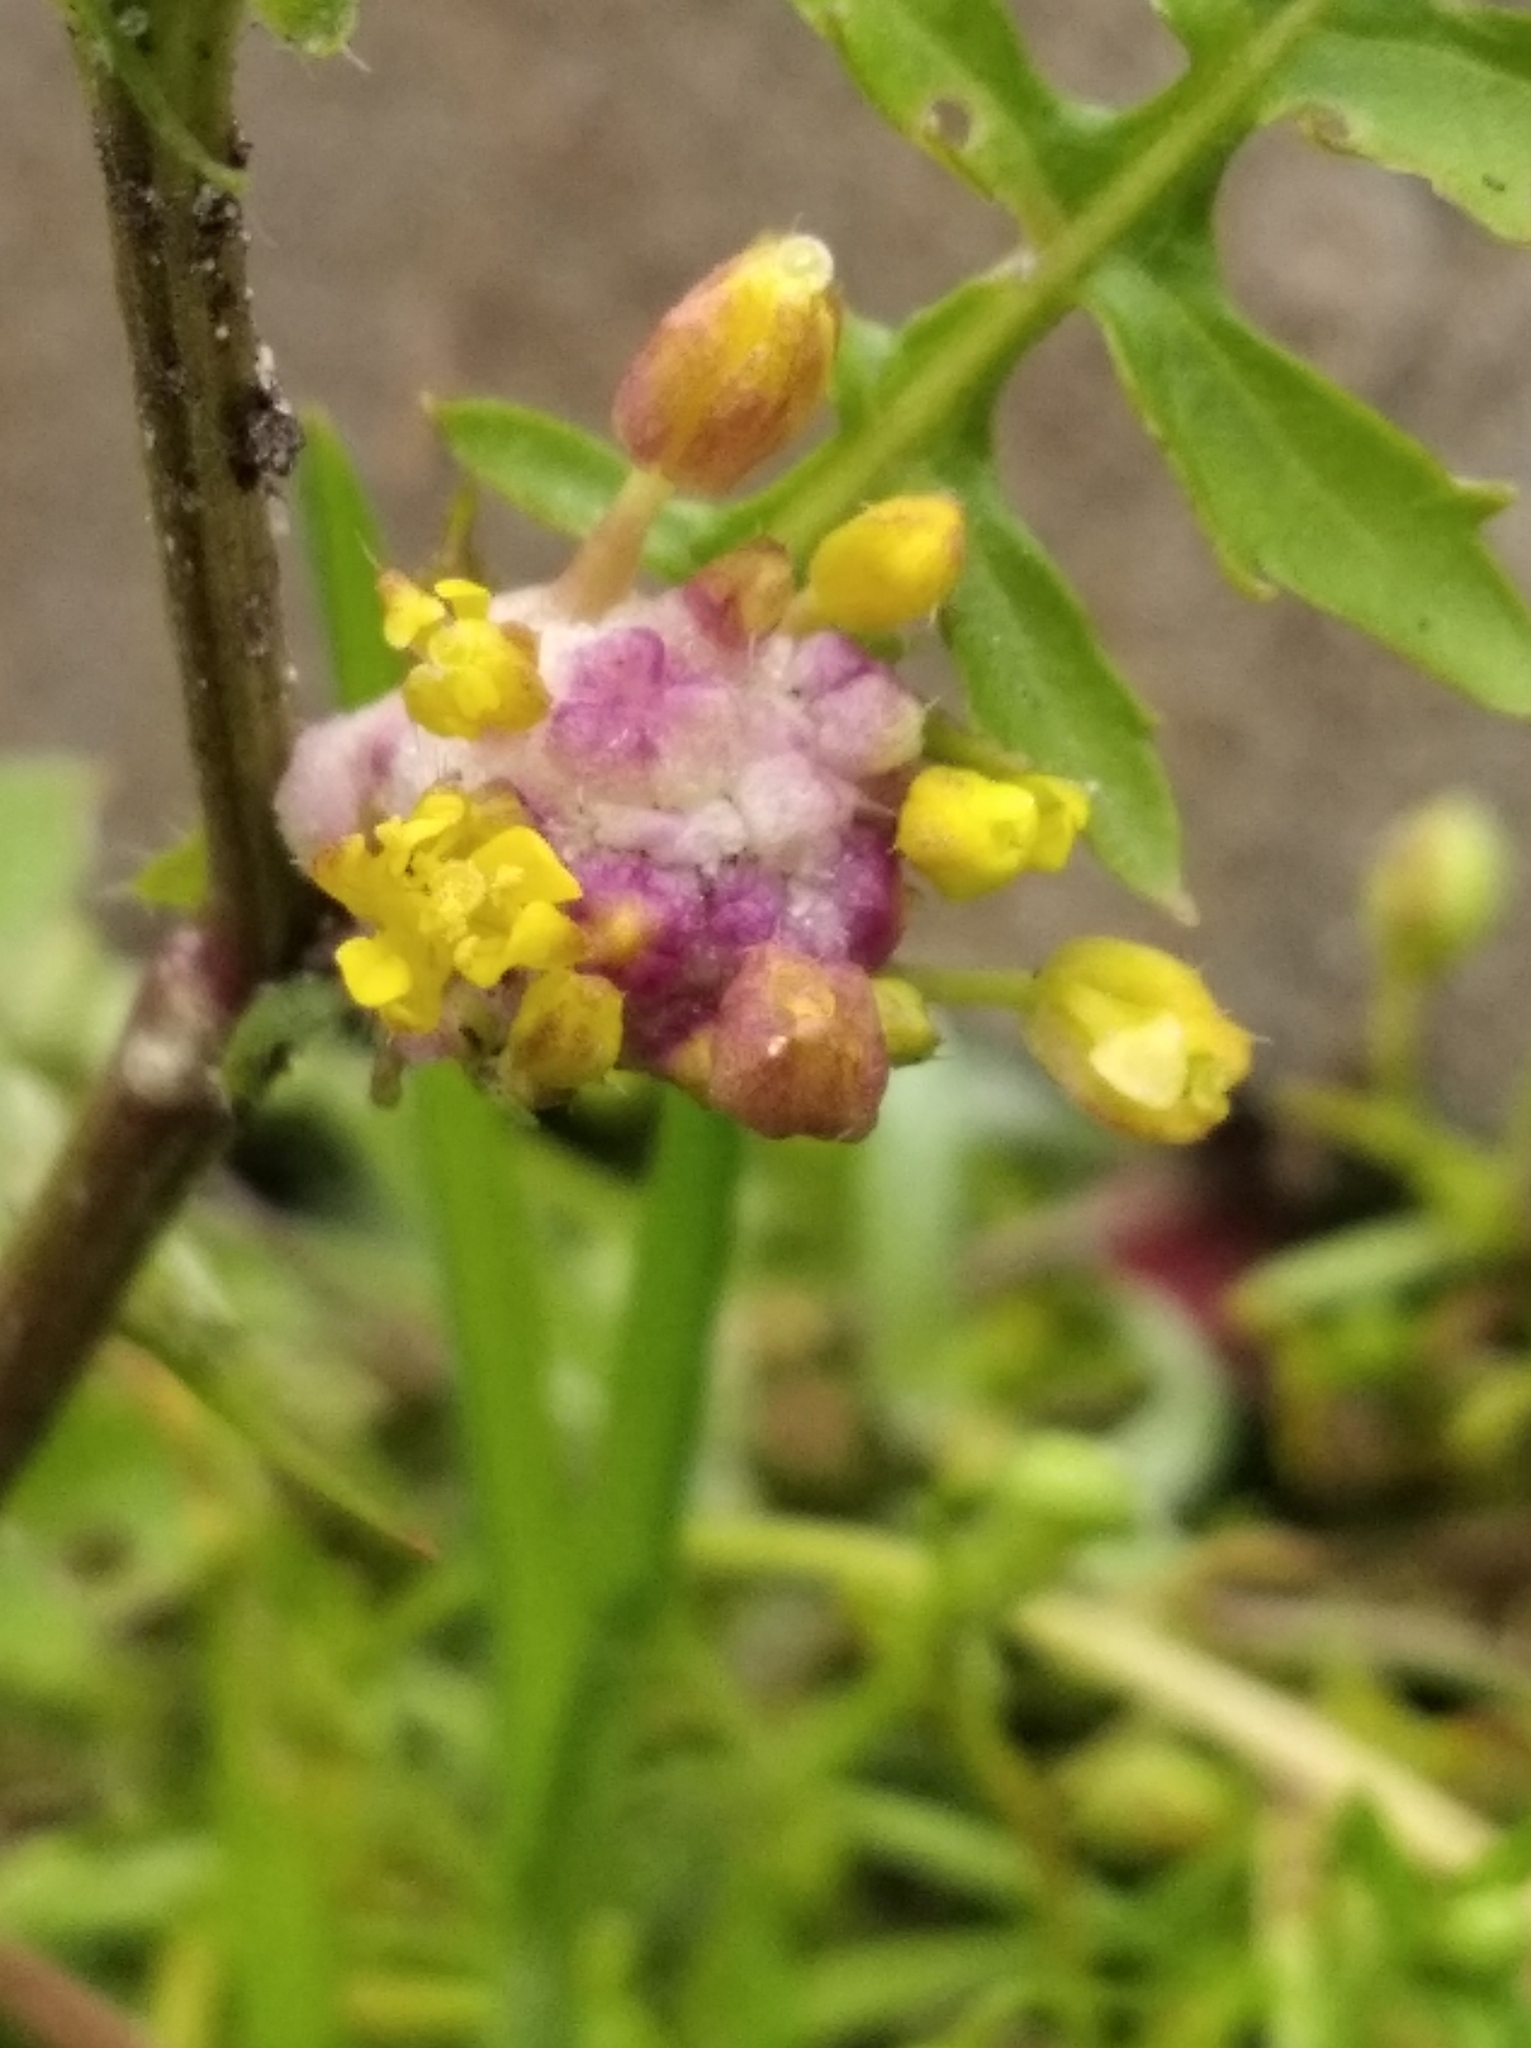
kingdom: Plantae
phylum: Tracheophyta
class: Magnoliopsida
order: Brassicales
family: Brassicaceae
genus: Rorippa
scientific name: Rorippa palustris
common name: Marsh yellow-cress
